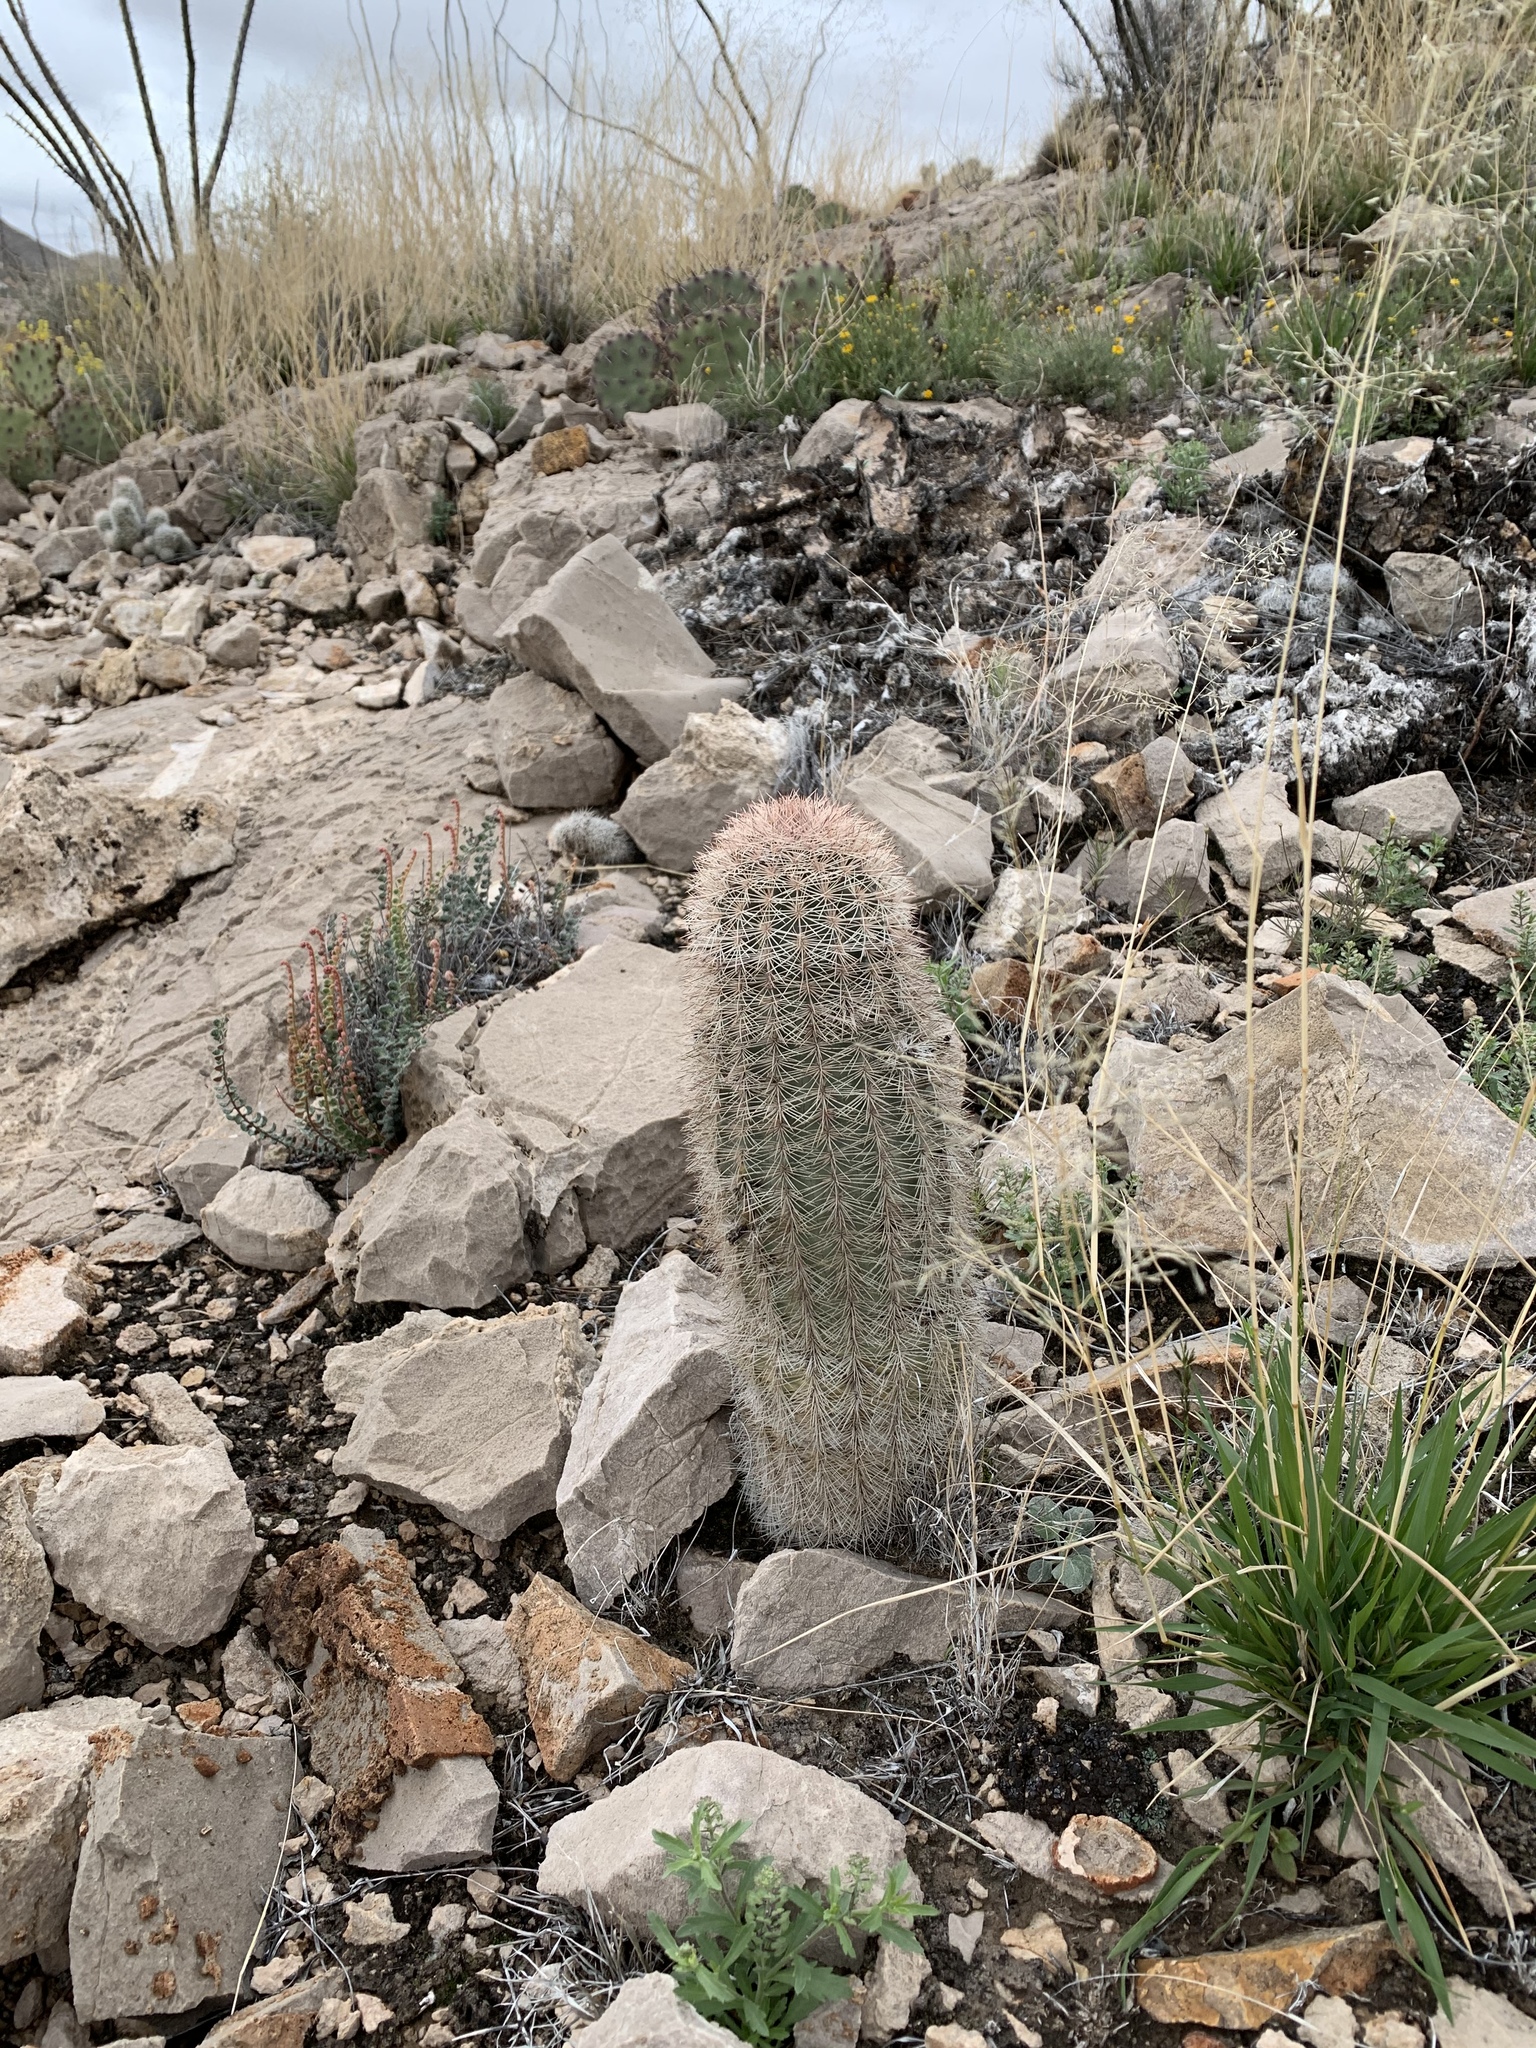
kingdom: Plantae
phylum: Tracheophyta
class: Magnoliopsida
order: Caryophyllales
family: Cactaceae
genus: Echinocereus
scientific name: Echinocereus dasyacanthus
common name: Spiny hedgehog cactus
